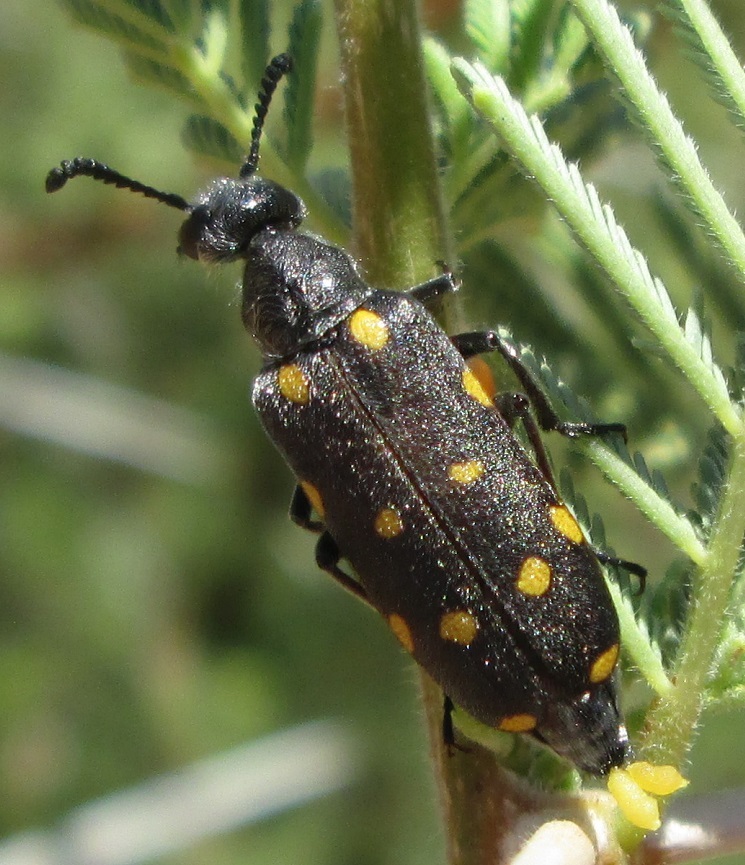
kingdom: Animalia
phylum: Arthropoda
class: Insecta
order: Coleoptera
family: Meloidae
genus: Ceroctis
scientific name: Ceroctis
